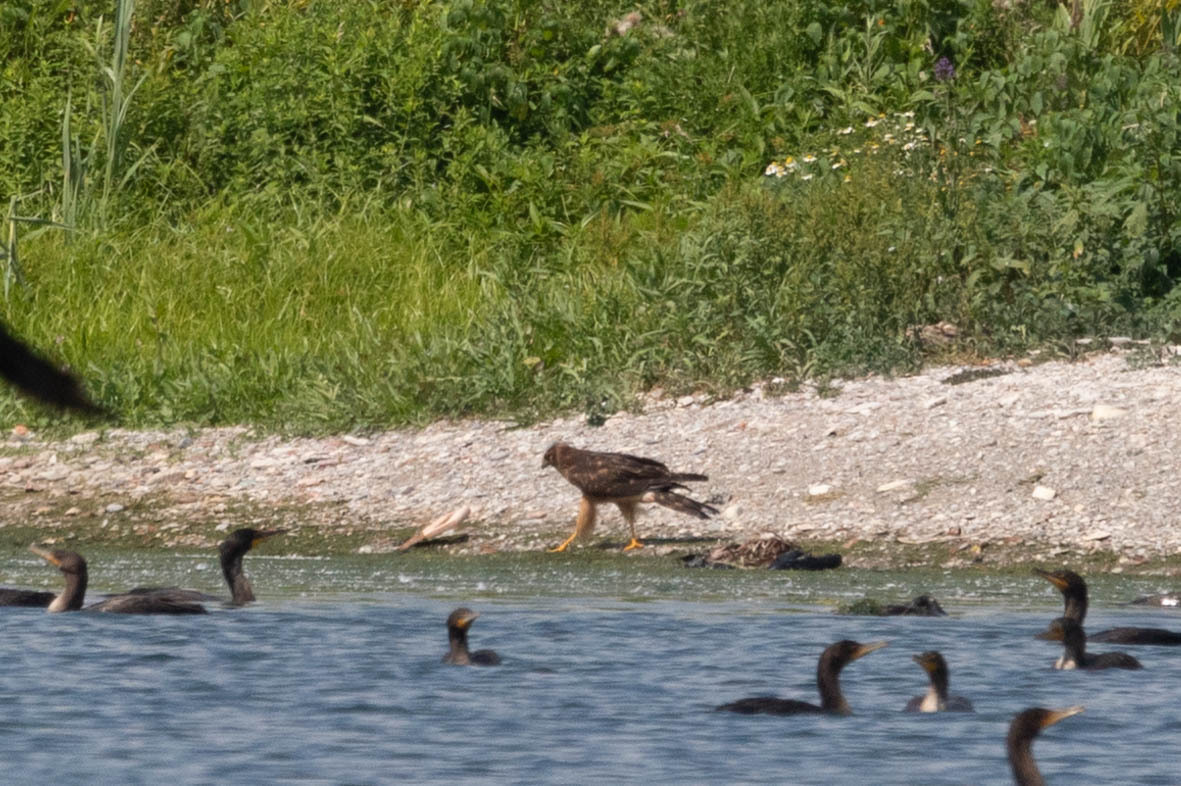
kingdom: Animalia
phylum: Chordata
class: Aves
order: Accipitriformes
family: Accipitridae
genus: Circus
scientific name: Circus cyaneus
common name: Hen harrier
